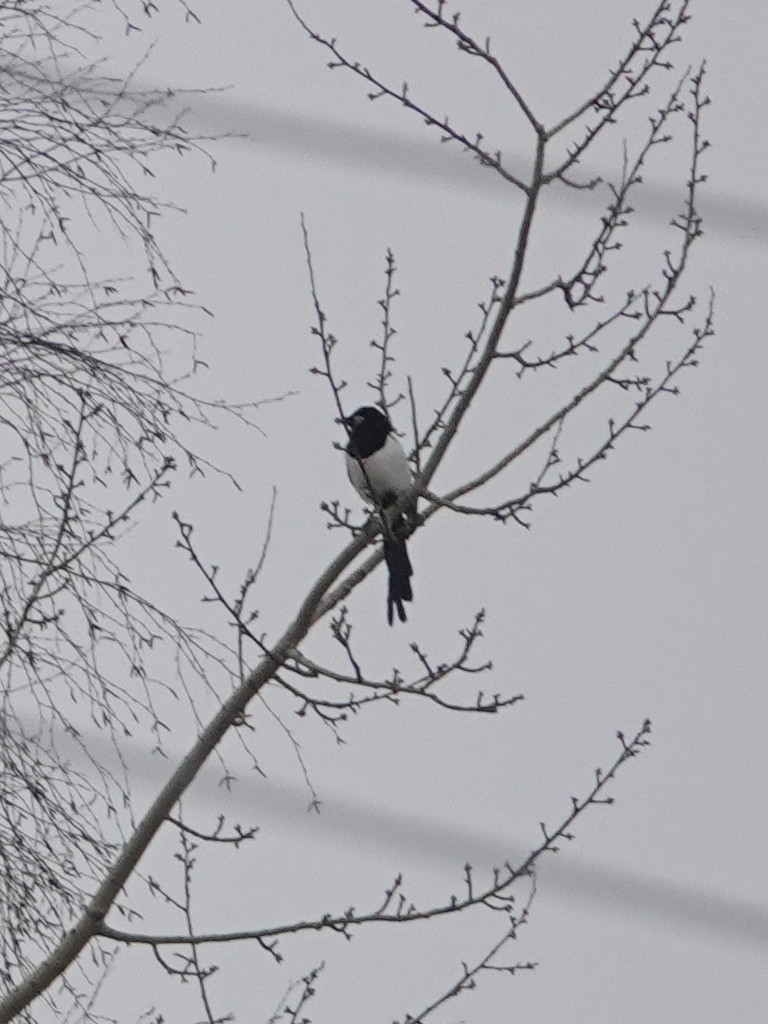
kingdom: Animalia
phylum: Chordata
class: Aves
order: Passeriformes
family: Corvidae
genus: Pica
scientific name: Pica pica
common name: Eurasian magpie
